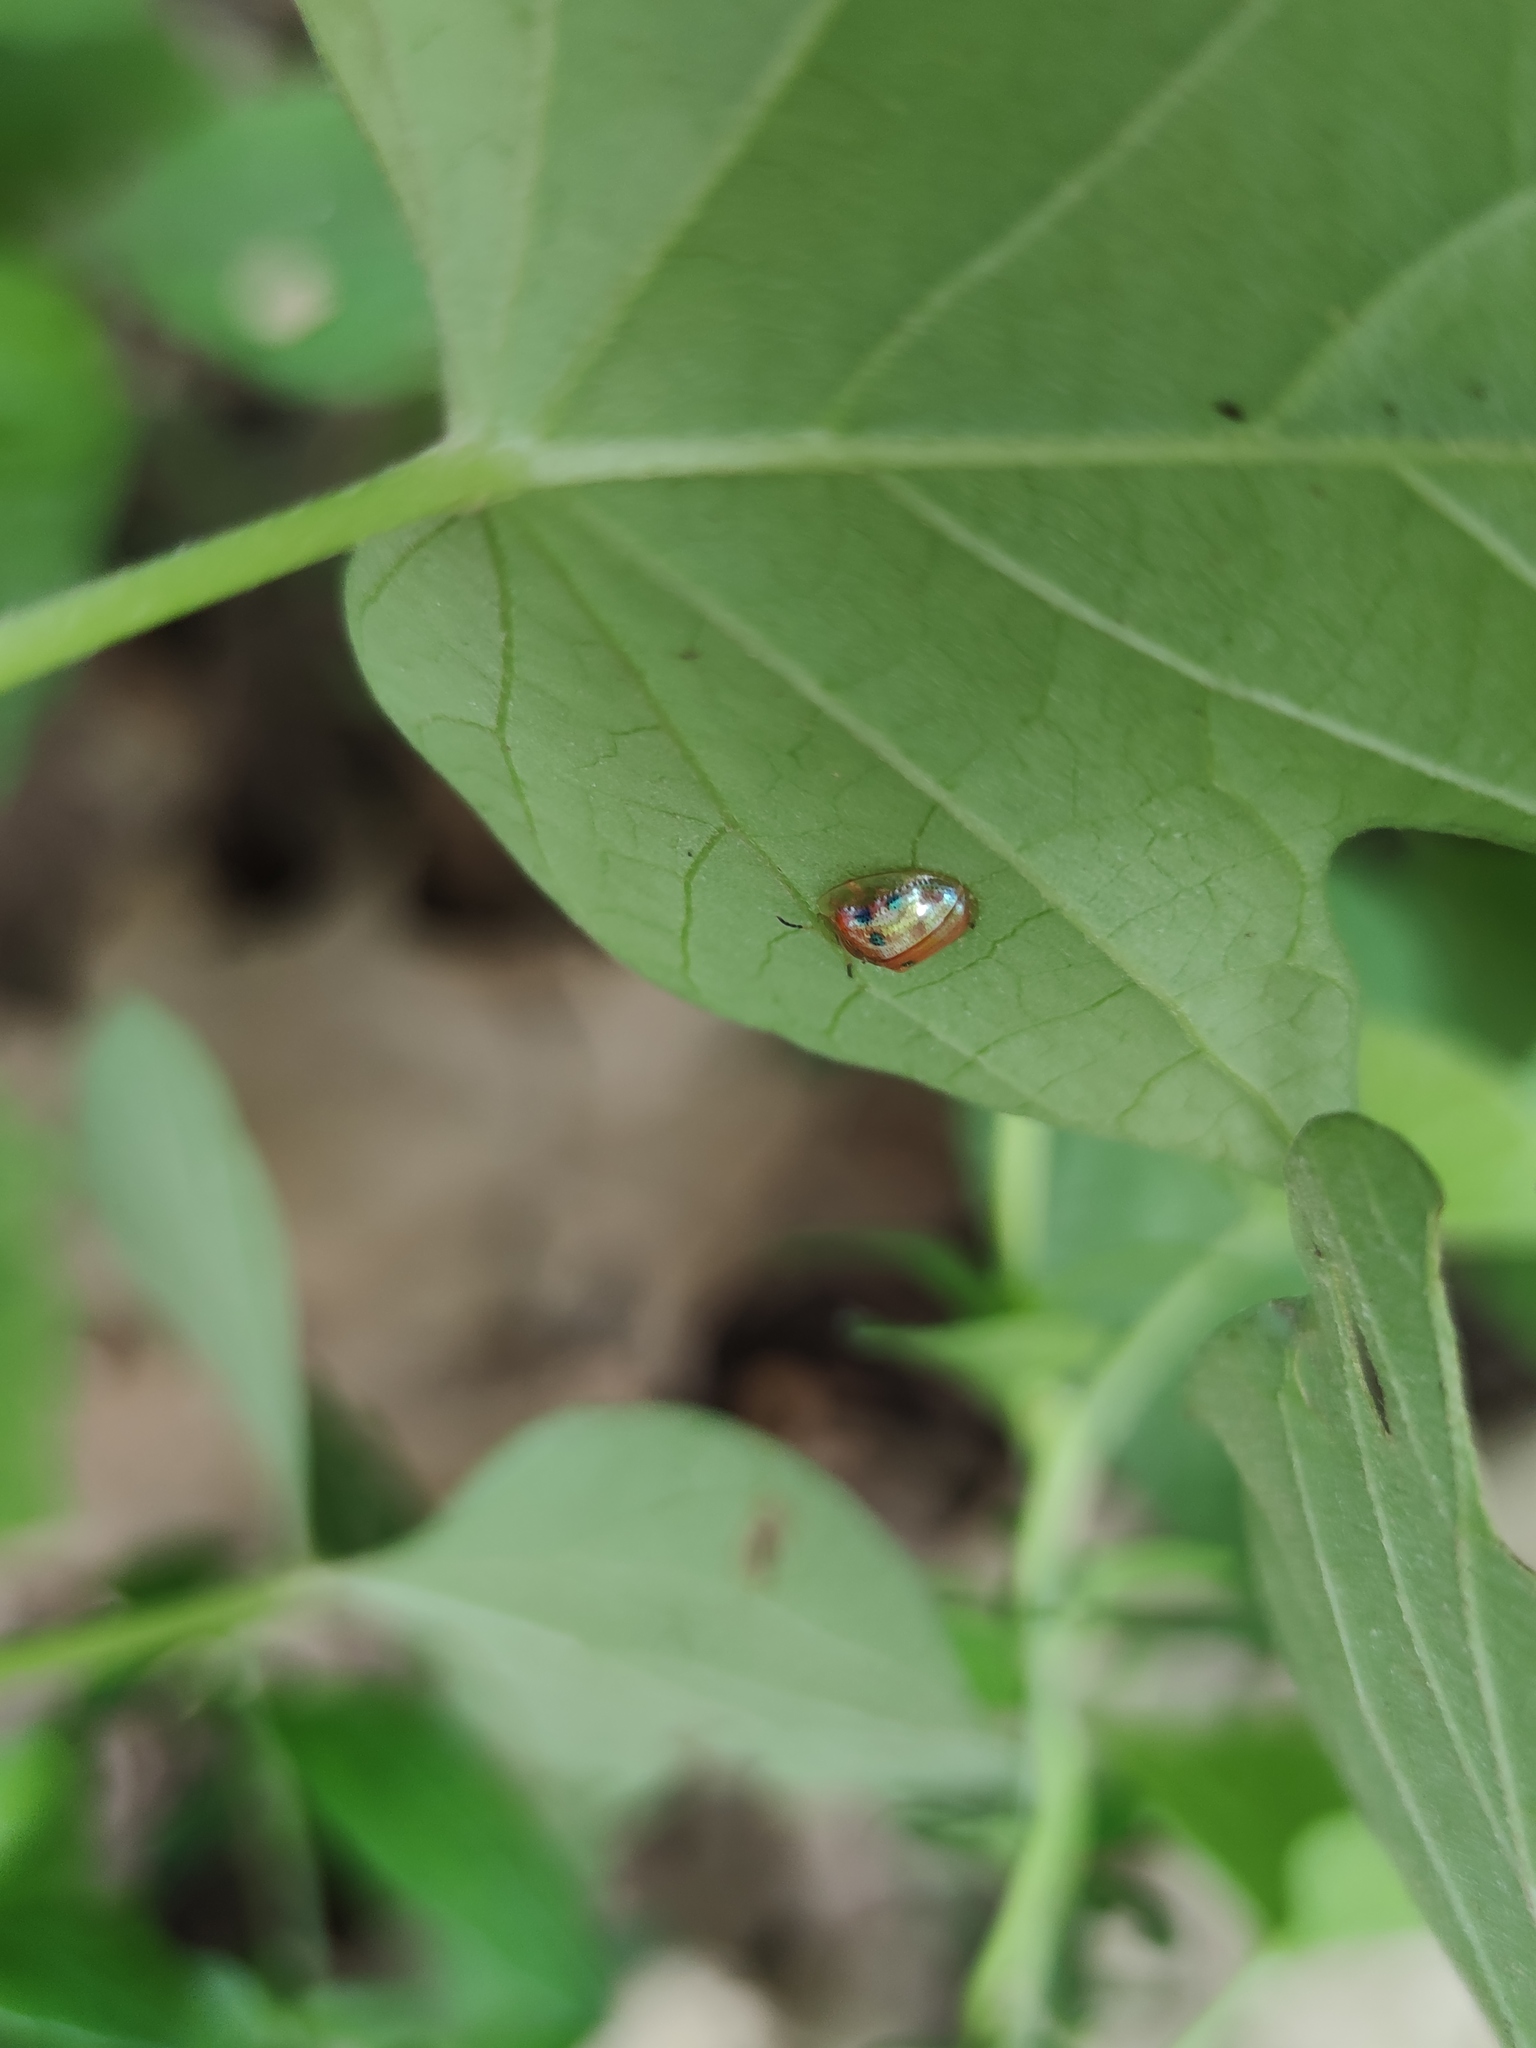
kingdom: Animalia
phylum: Arthropoda
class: Insecta
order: Coleoptera
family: Chrysomelidae
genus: Charidotella
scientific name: Charidotella sexpunctata
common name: Golden tortoise beetle
